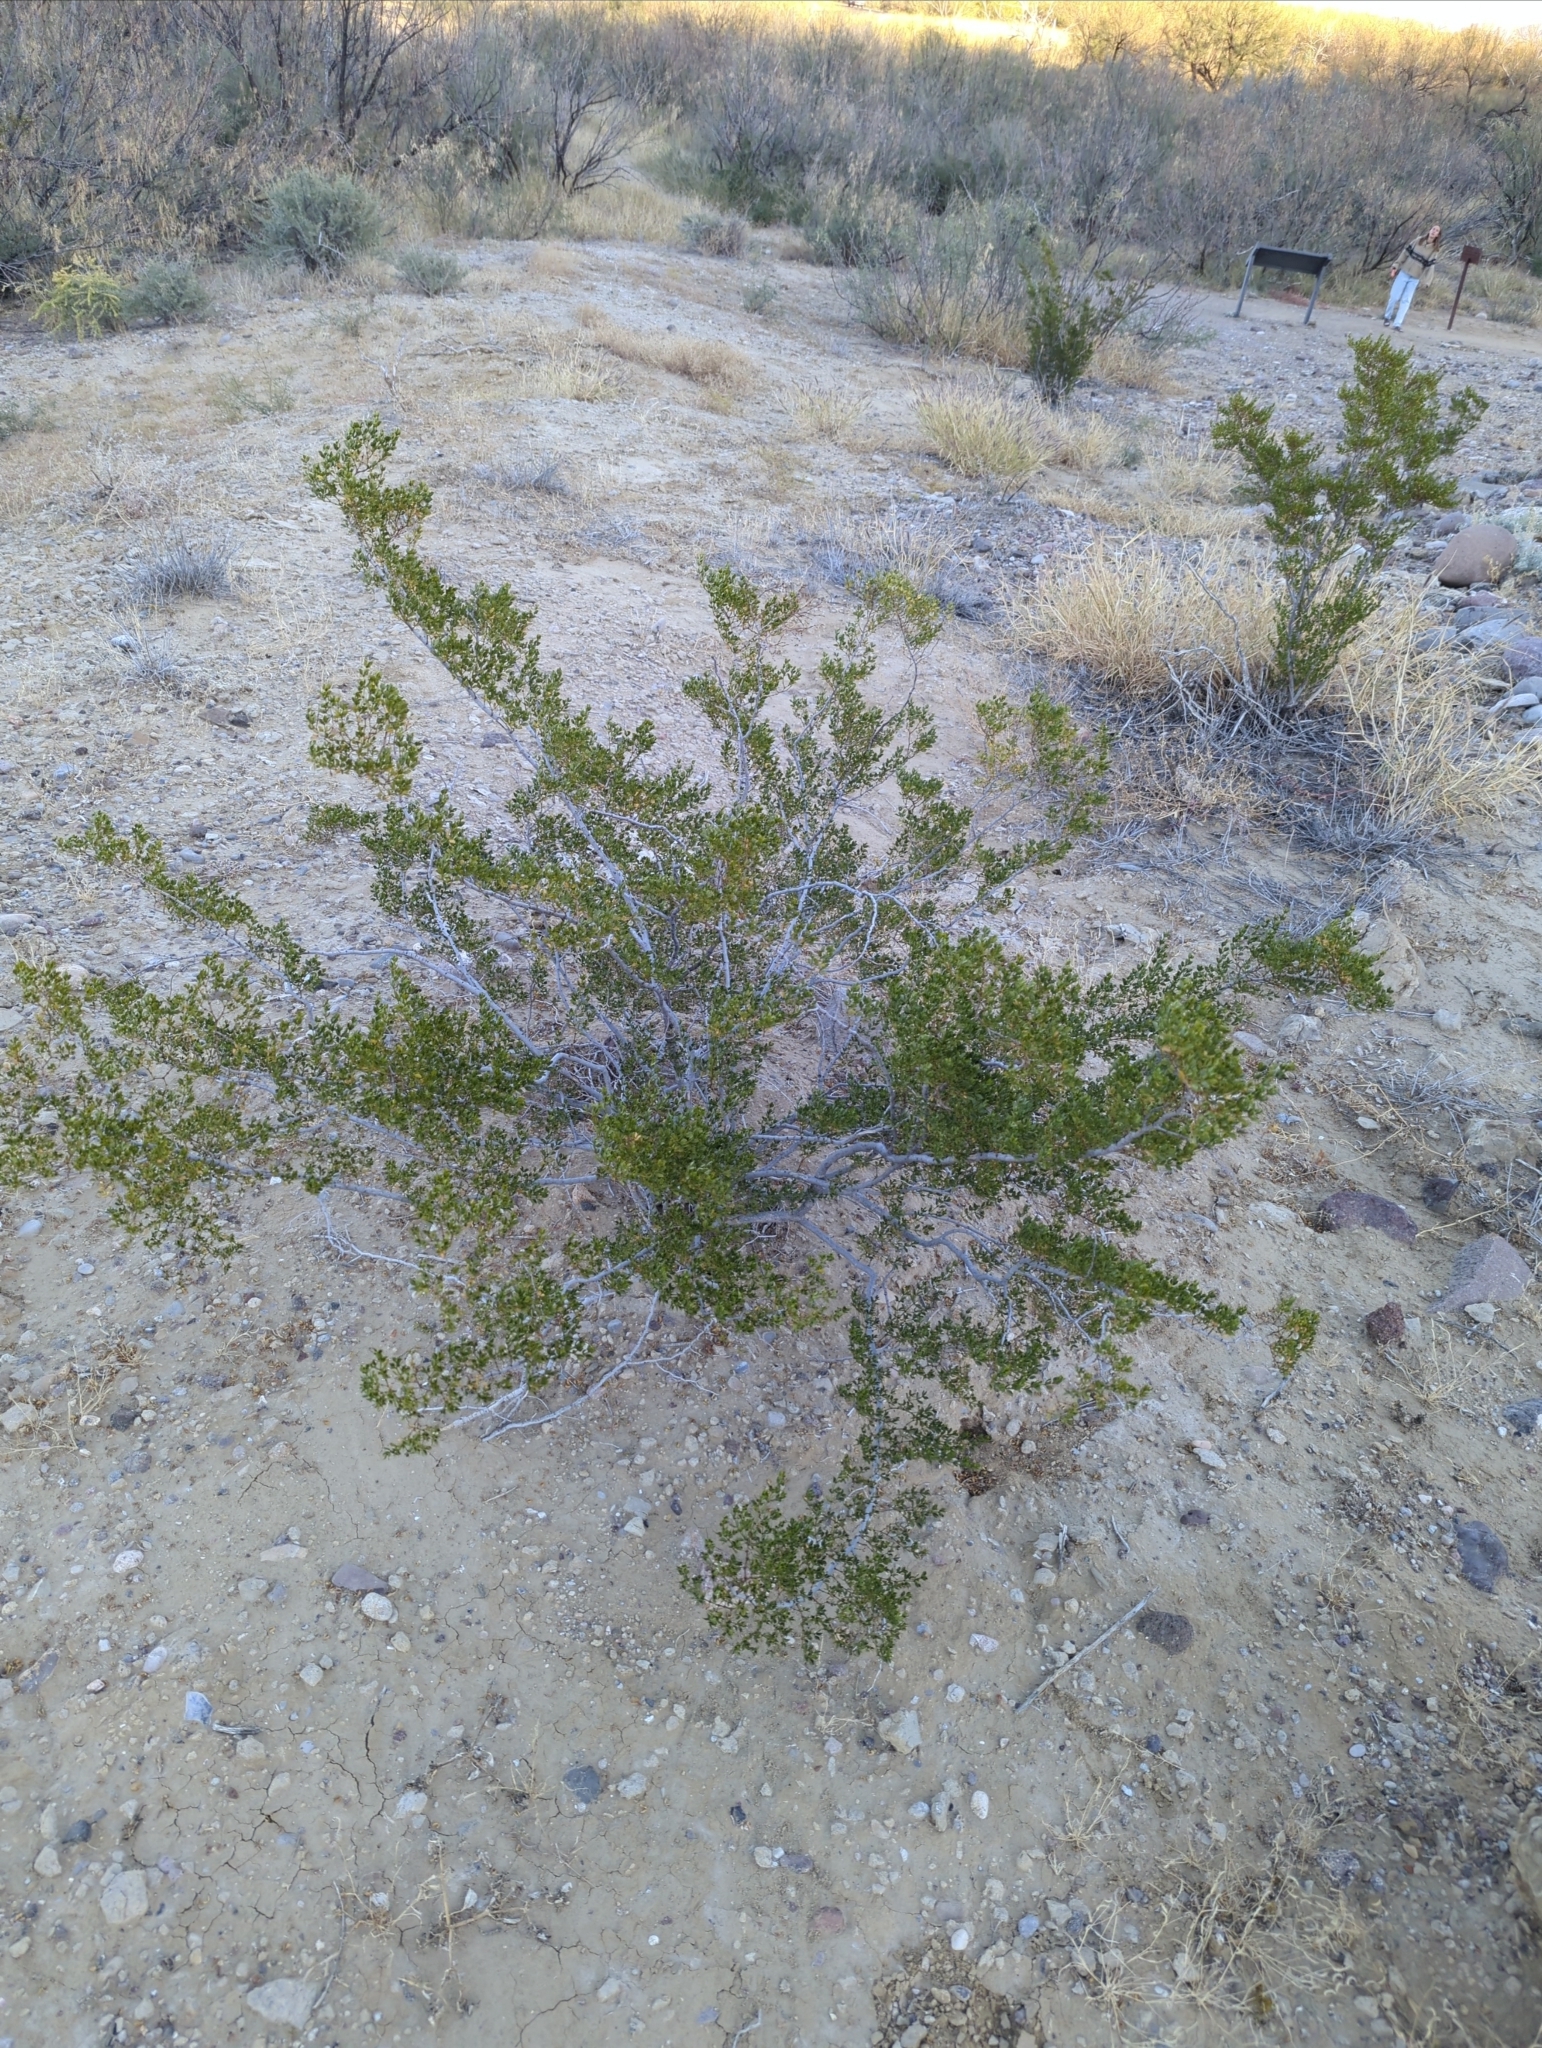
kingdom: Plantae
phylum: Tracheophyta
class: Magnoliopsida
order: Zygophyllales
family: Zygophyllaceae
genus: Larrea
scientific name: Larrea tridentata
